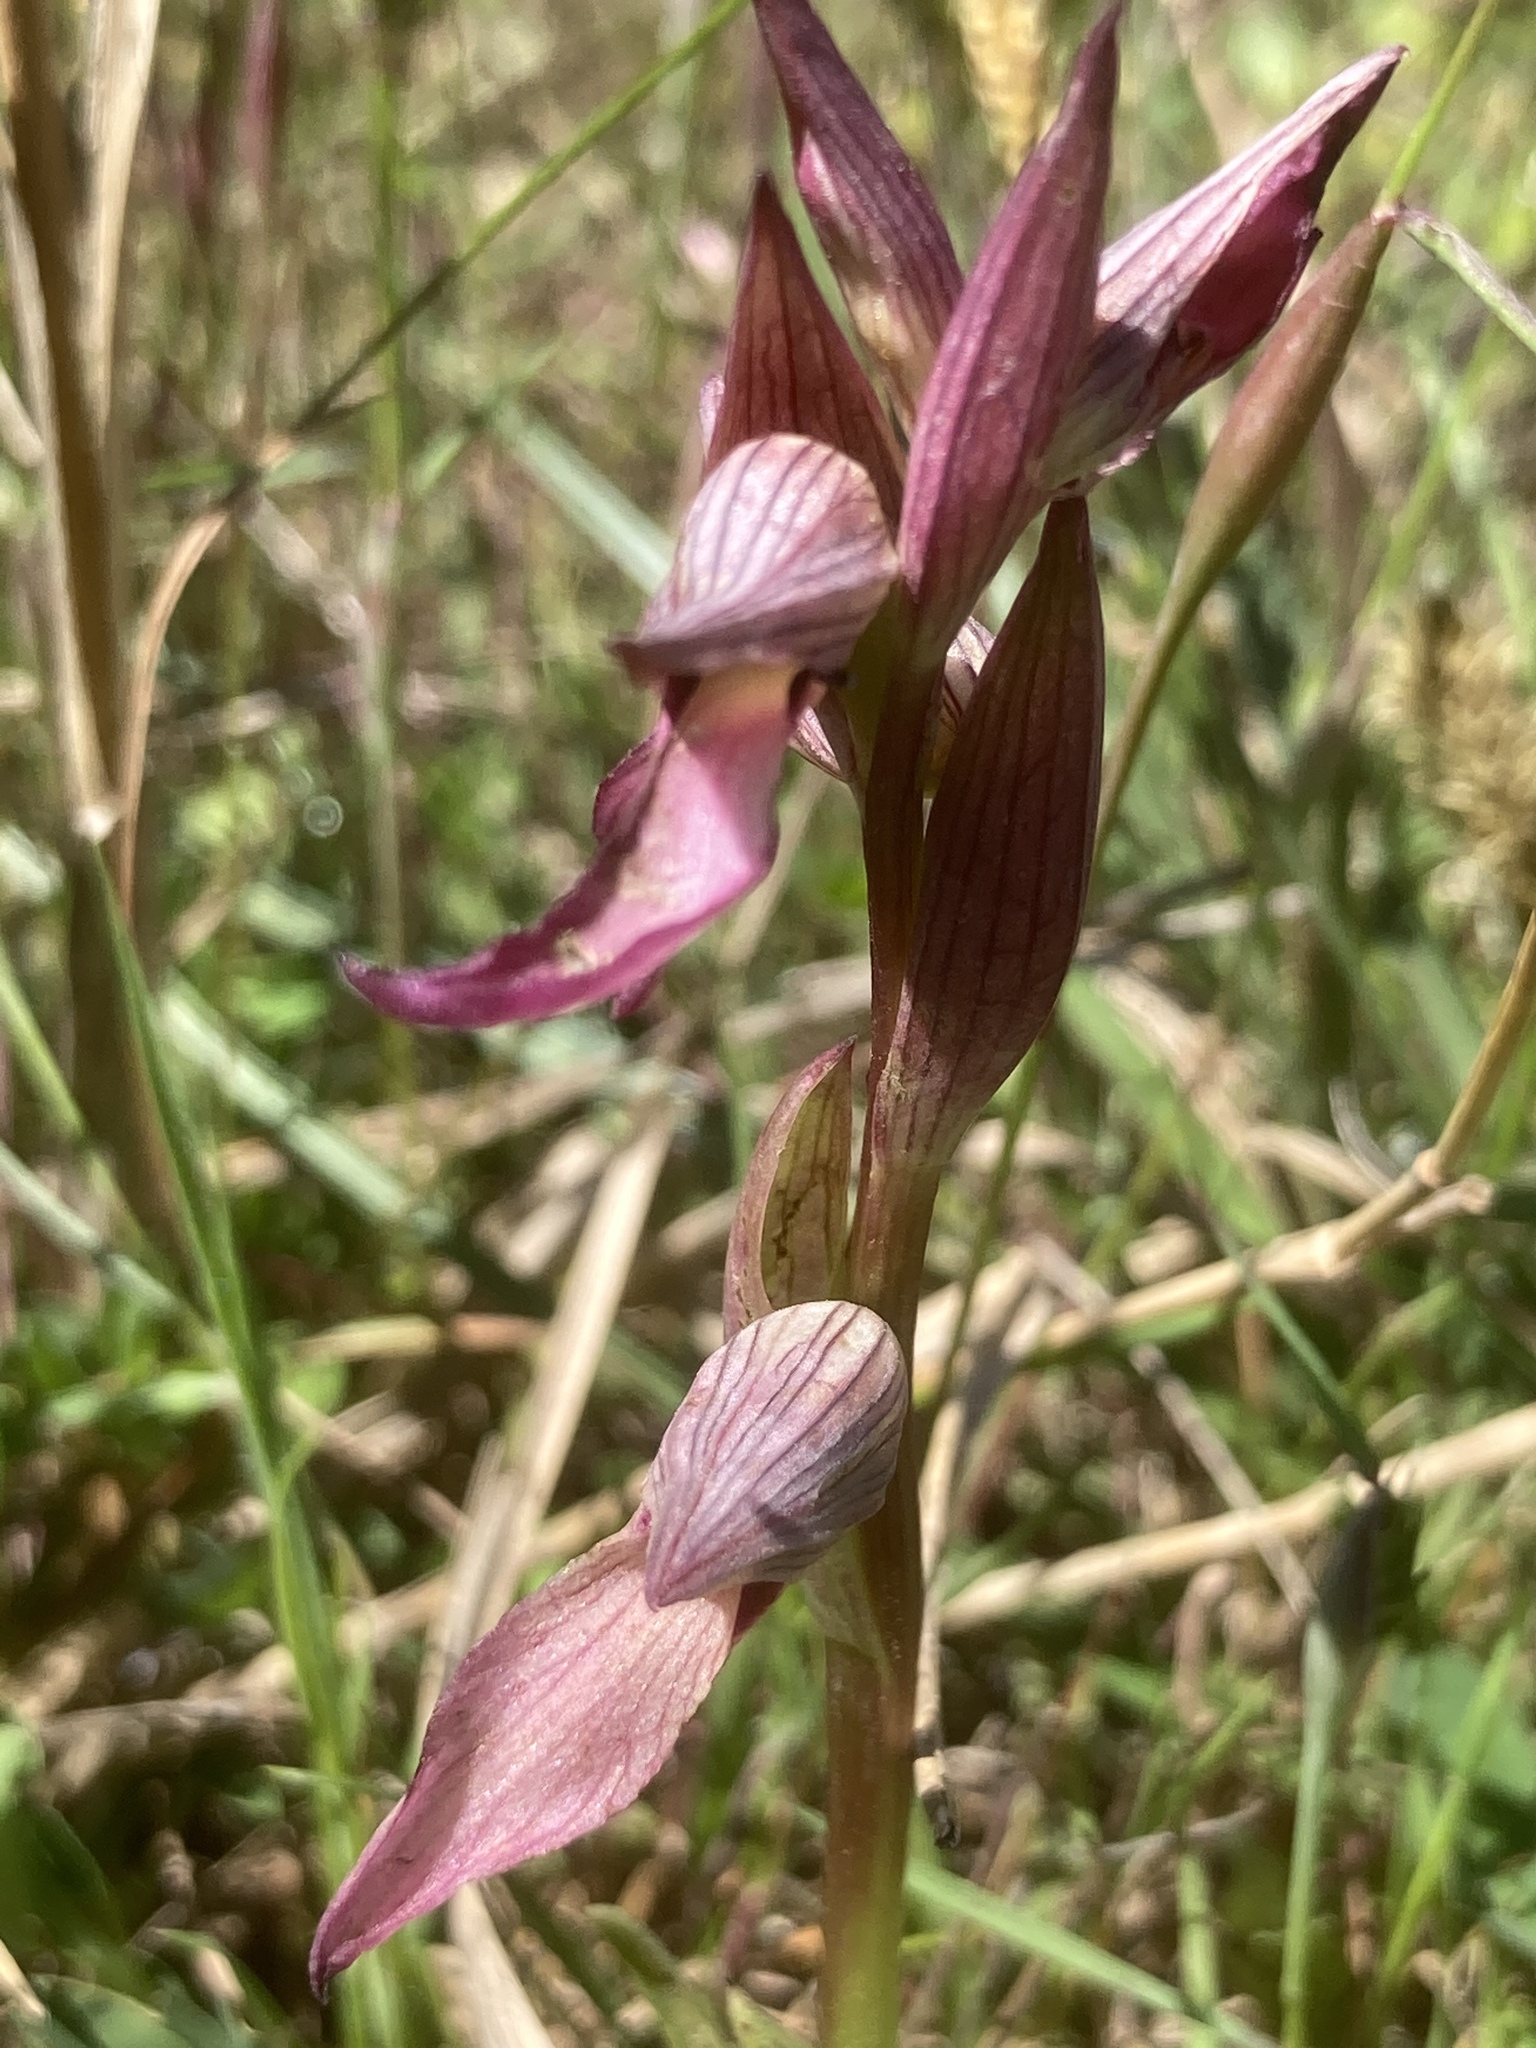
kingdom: Plantae
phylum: Tracheophyta
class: Liliopsida
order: Asparagales
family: Orchidaceae
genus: Serapias
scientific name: Serapias lingua
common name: Tongue-orchid
